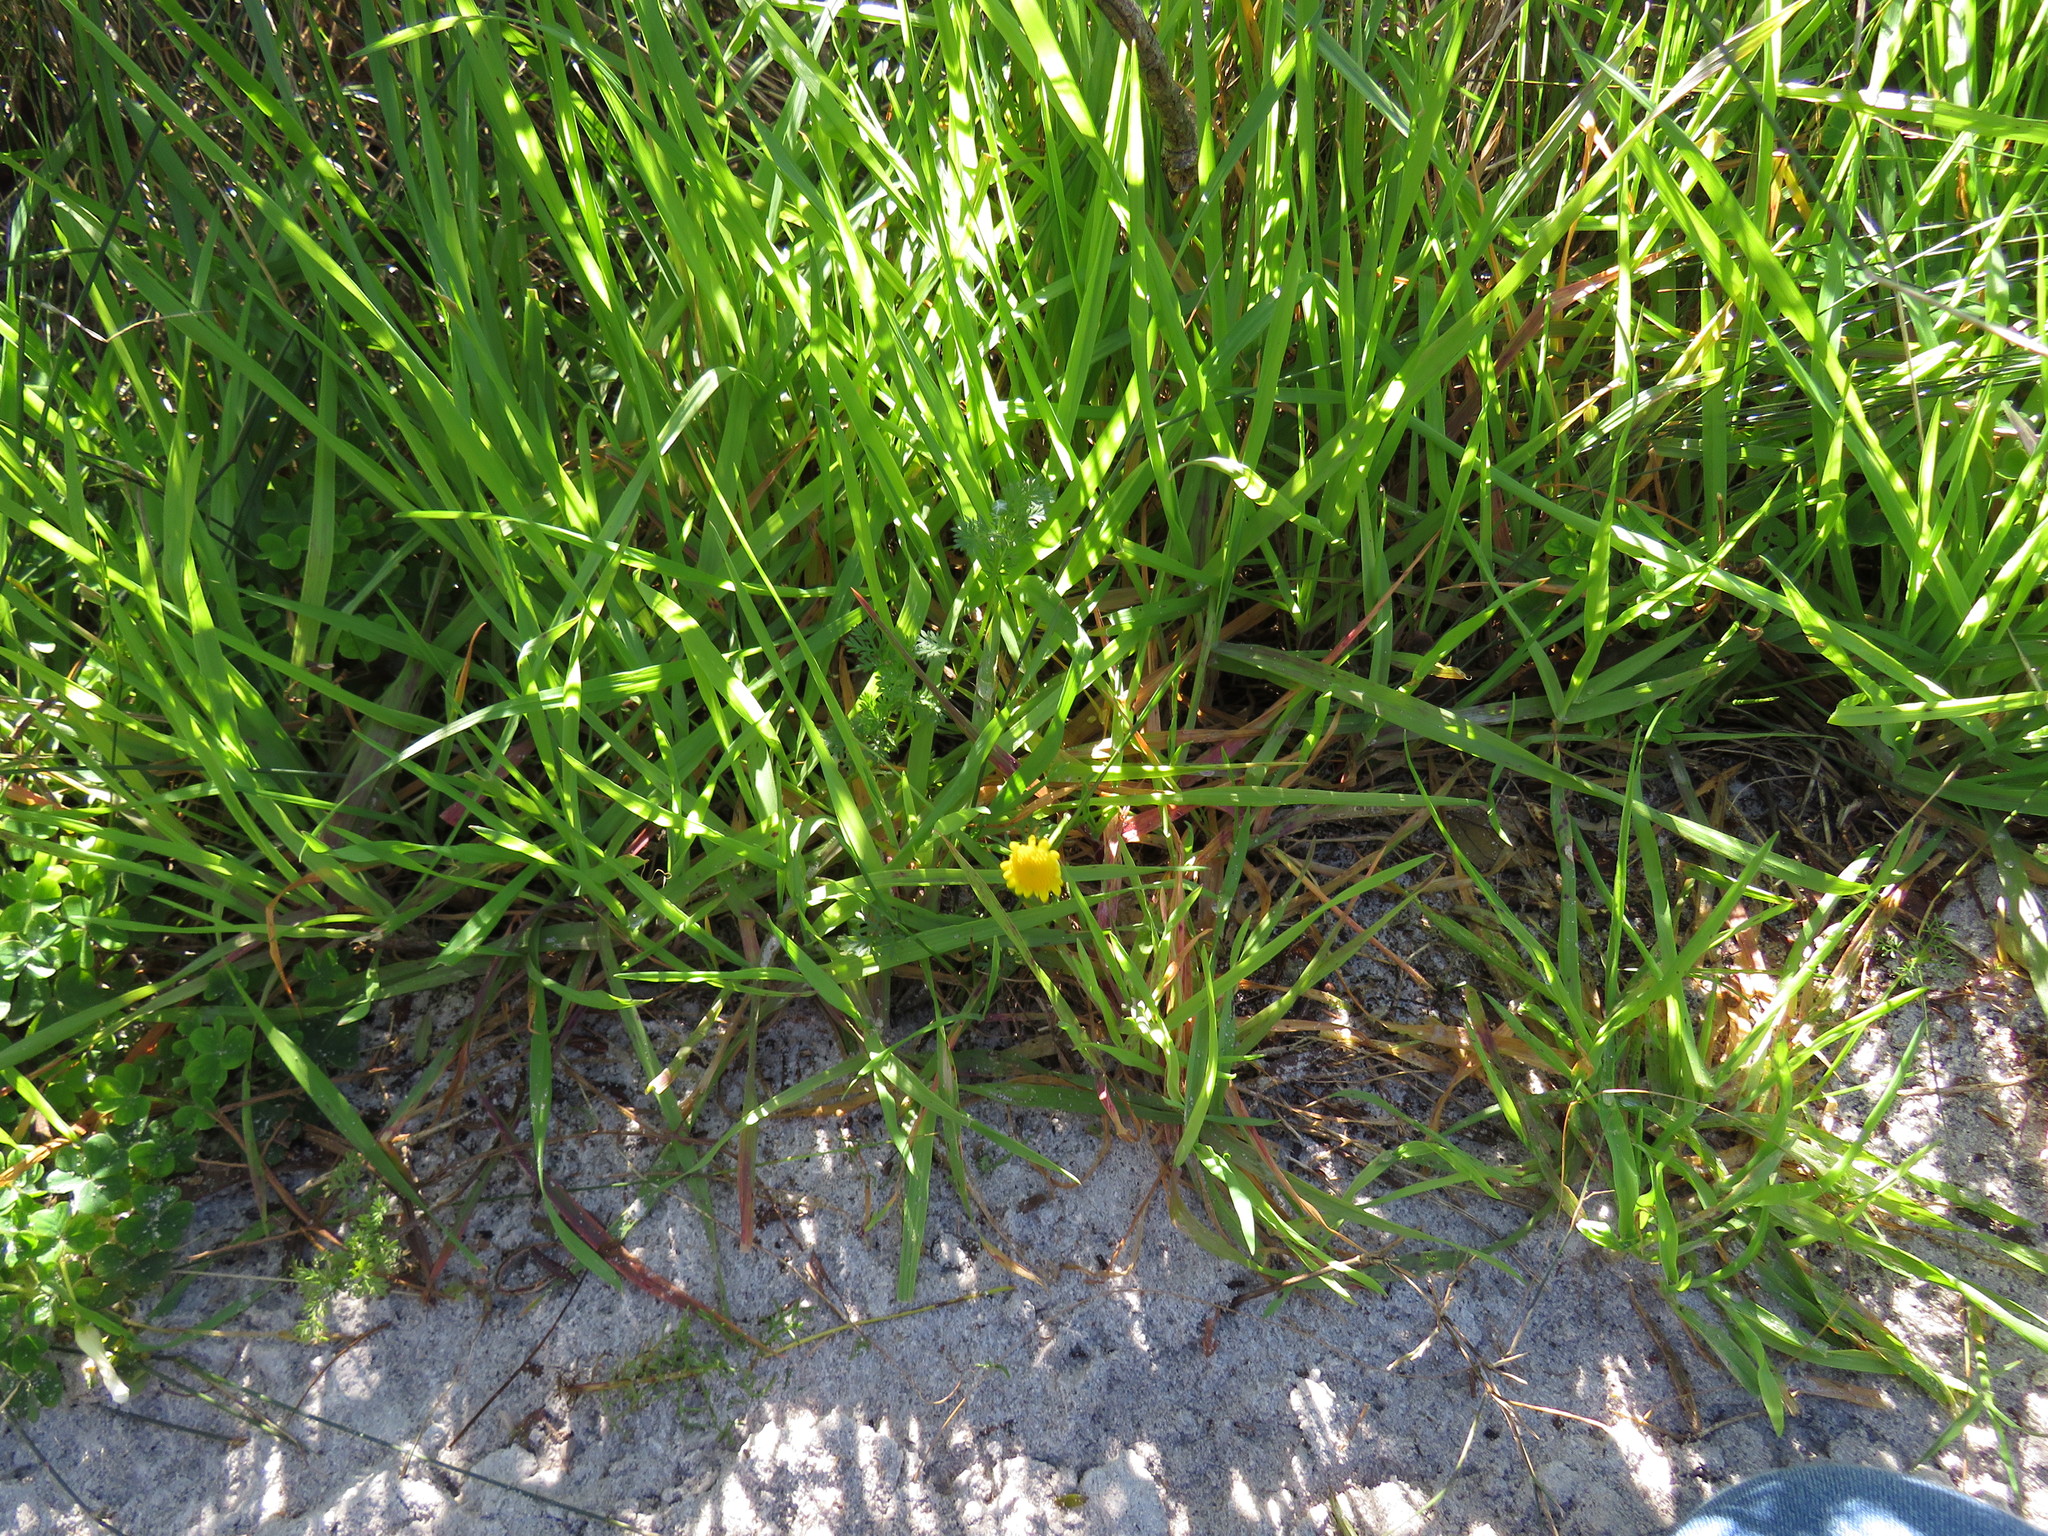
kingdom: Plantae
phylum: Tracheophyta
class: Magnoliopsida
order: Asterales
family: Asteraceae
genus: Cotula
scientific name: Cotula pruinosa
